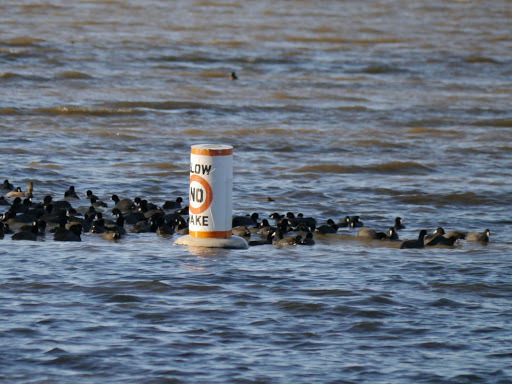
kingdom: Animalia
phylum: Chordata
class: Aves
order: Gruiformes
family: Rallidae
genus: Fulica
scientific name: Fulica americana
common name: American coot
